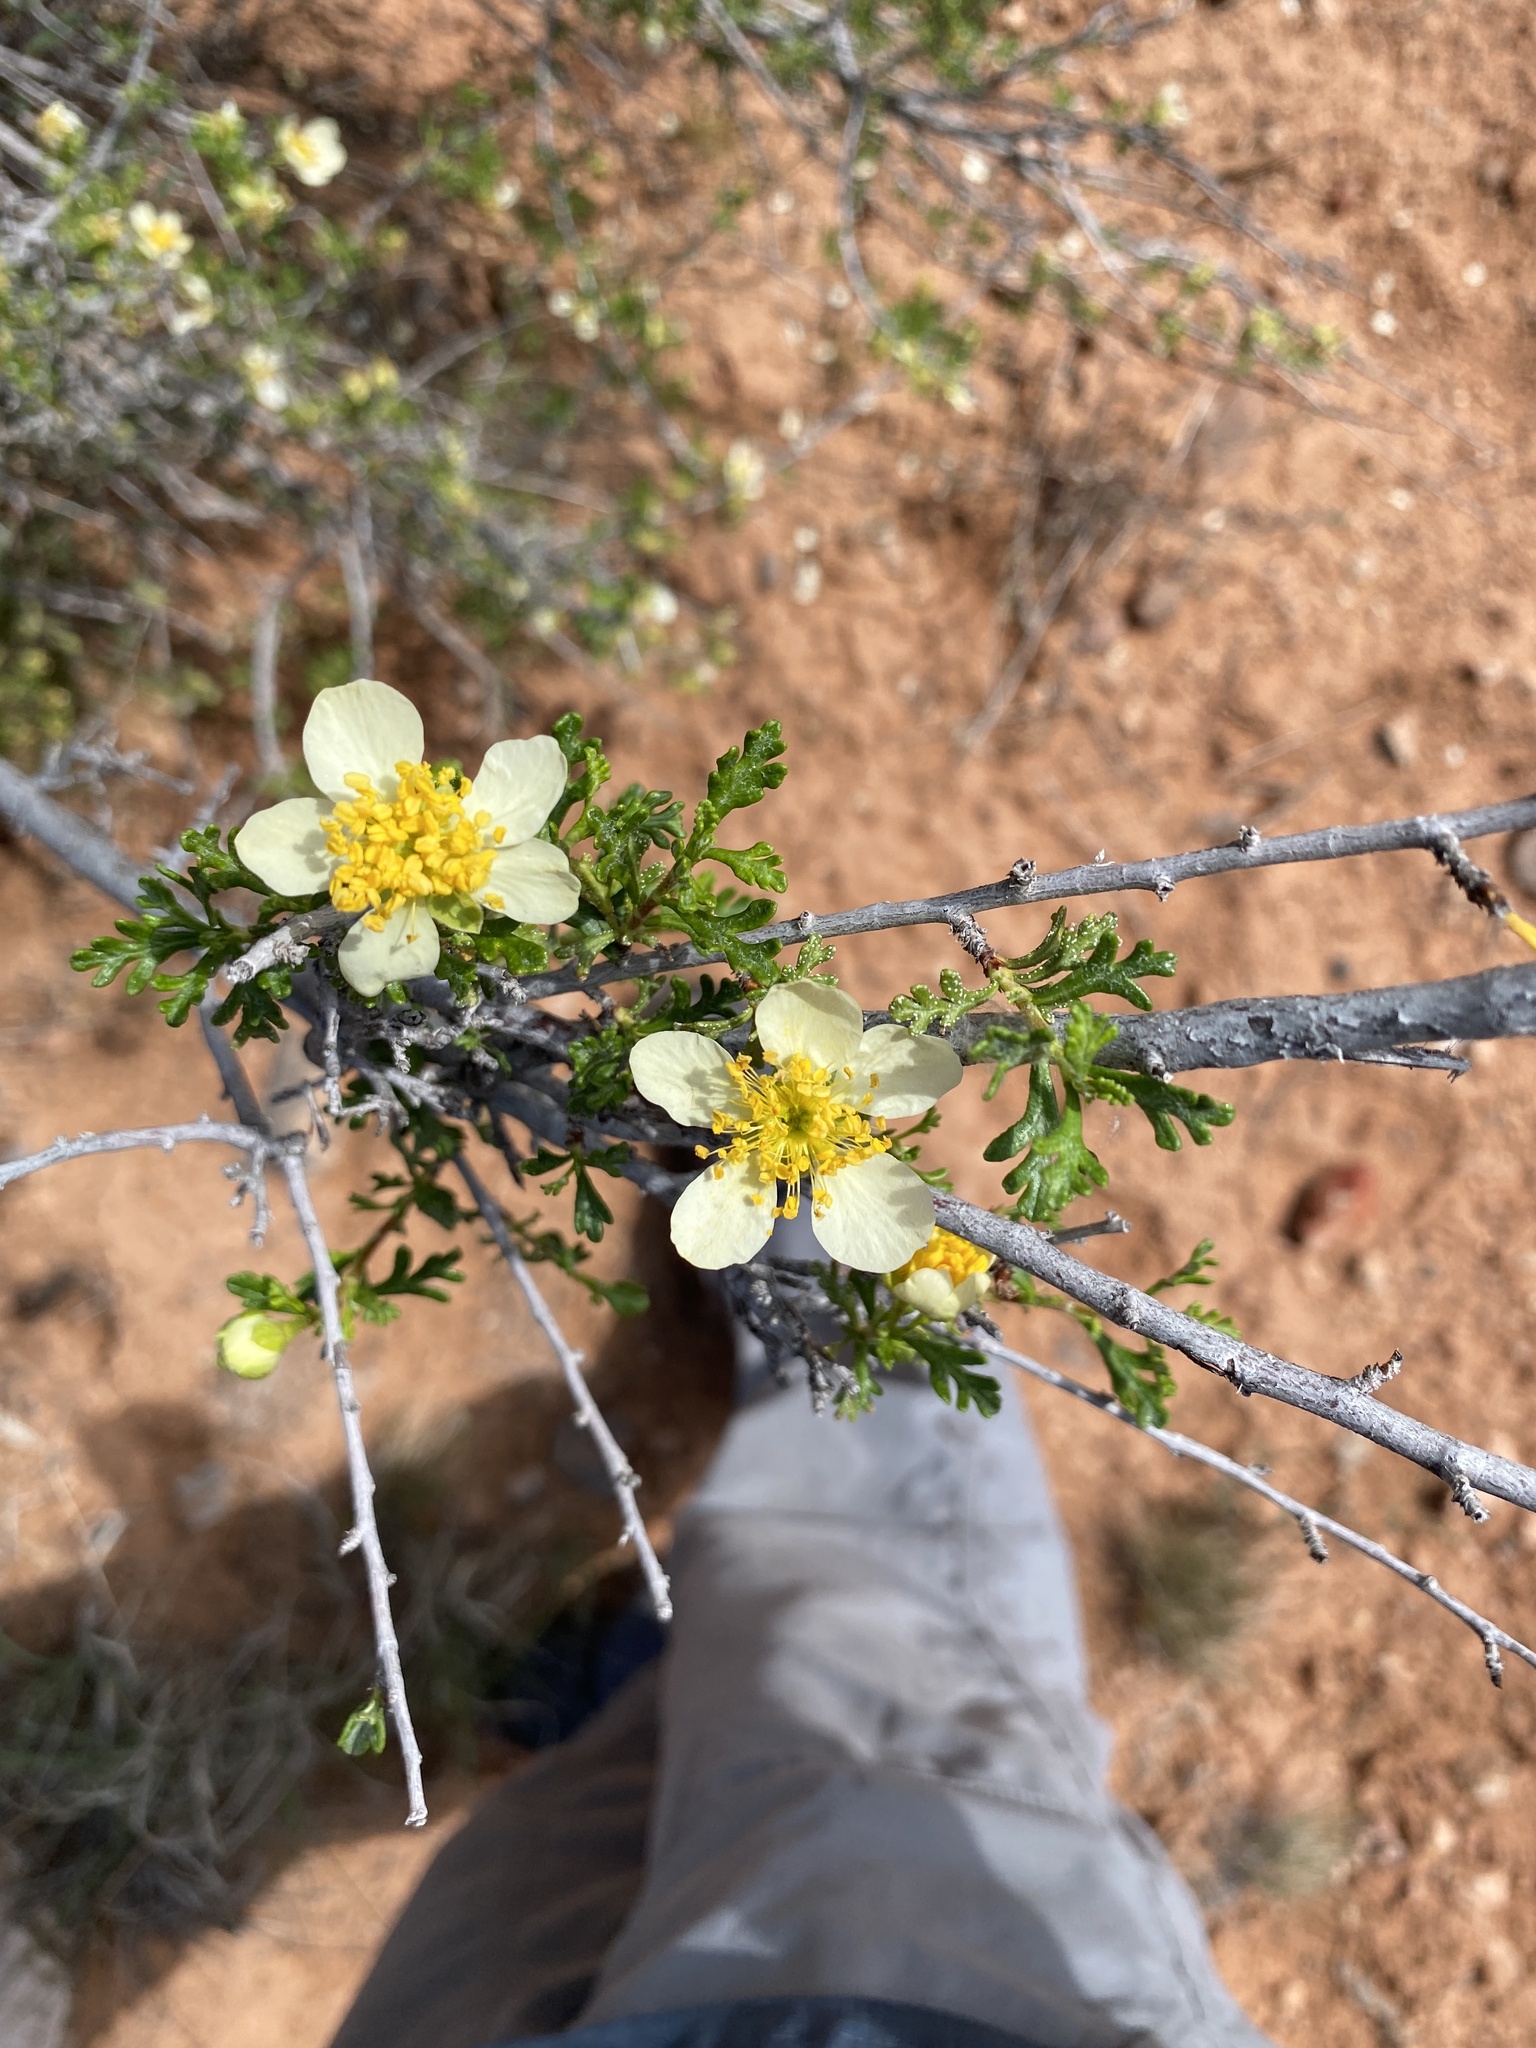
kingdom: Plantae
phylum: Tracheophyta
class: Magnoliopsida
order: Rosales
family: Rosaceae
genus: Purshia
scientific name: Purshia stansburiana
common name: Stansbury's cliffrose
